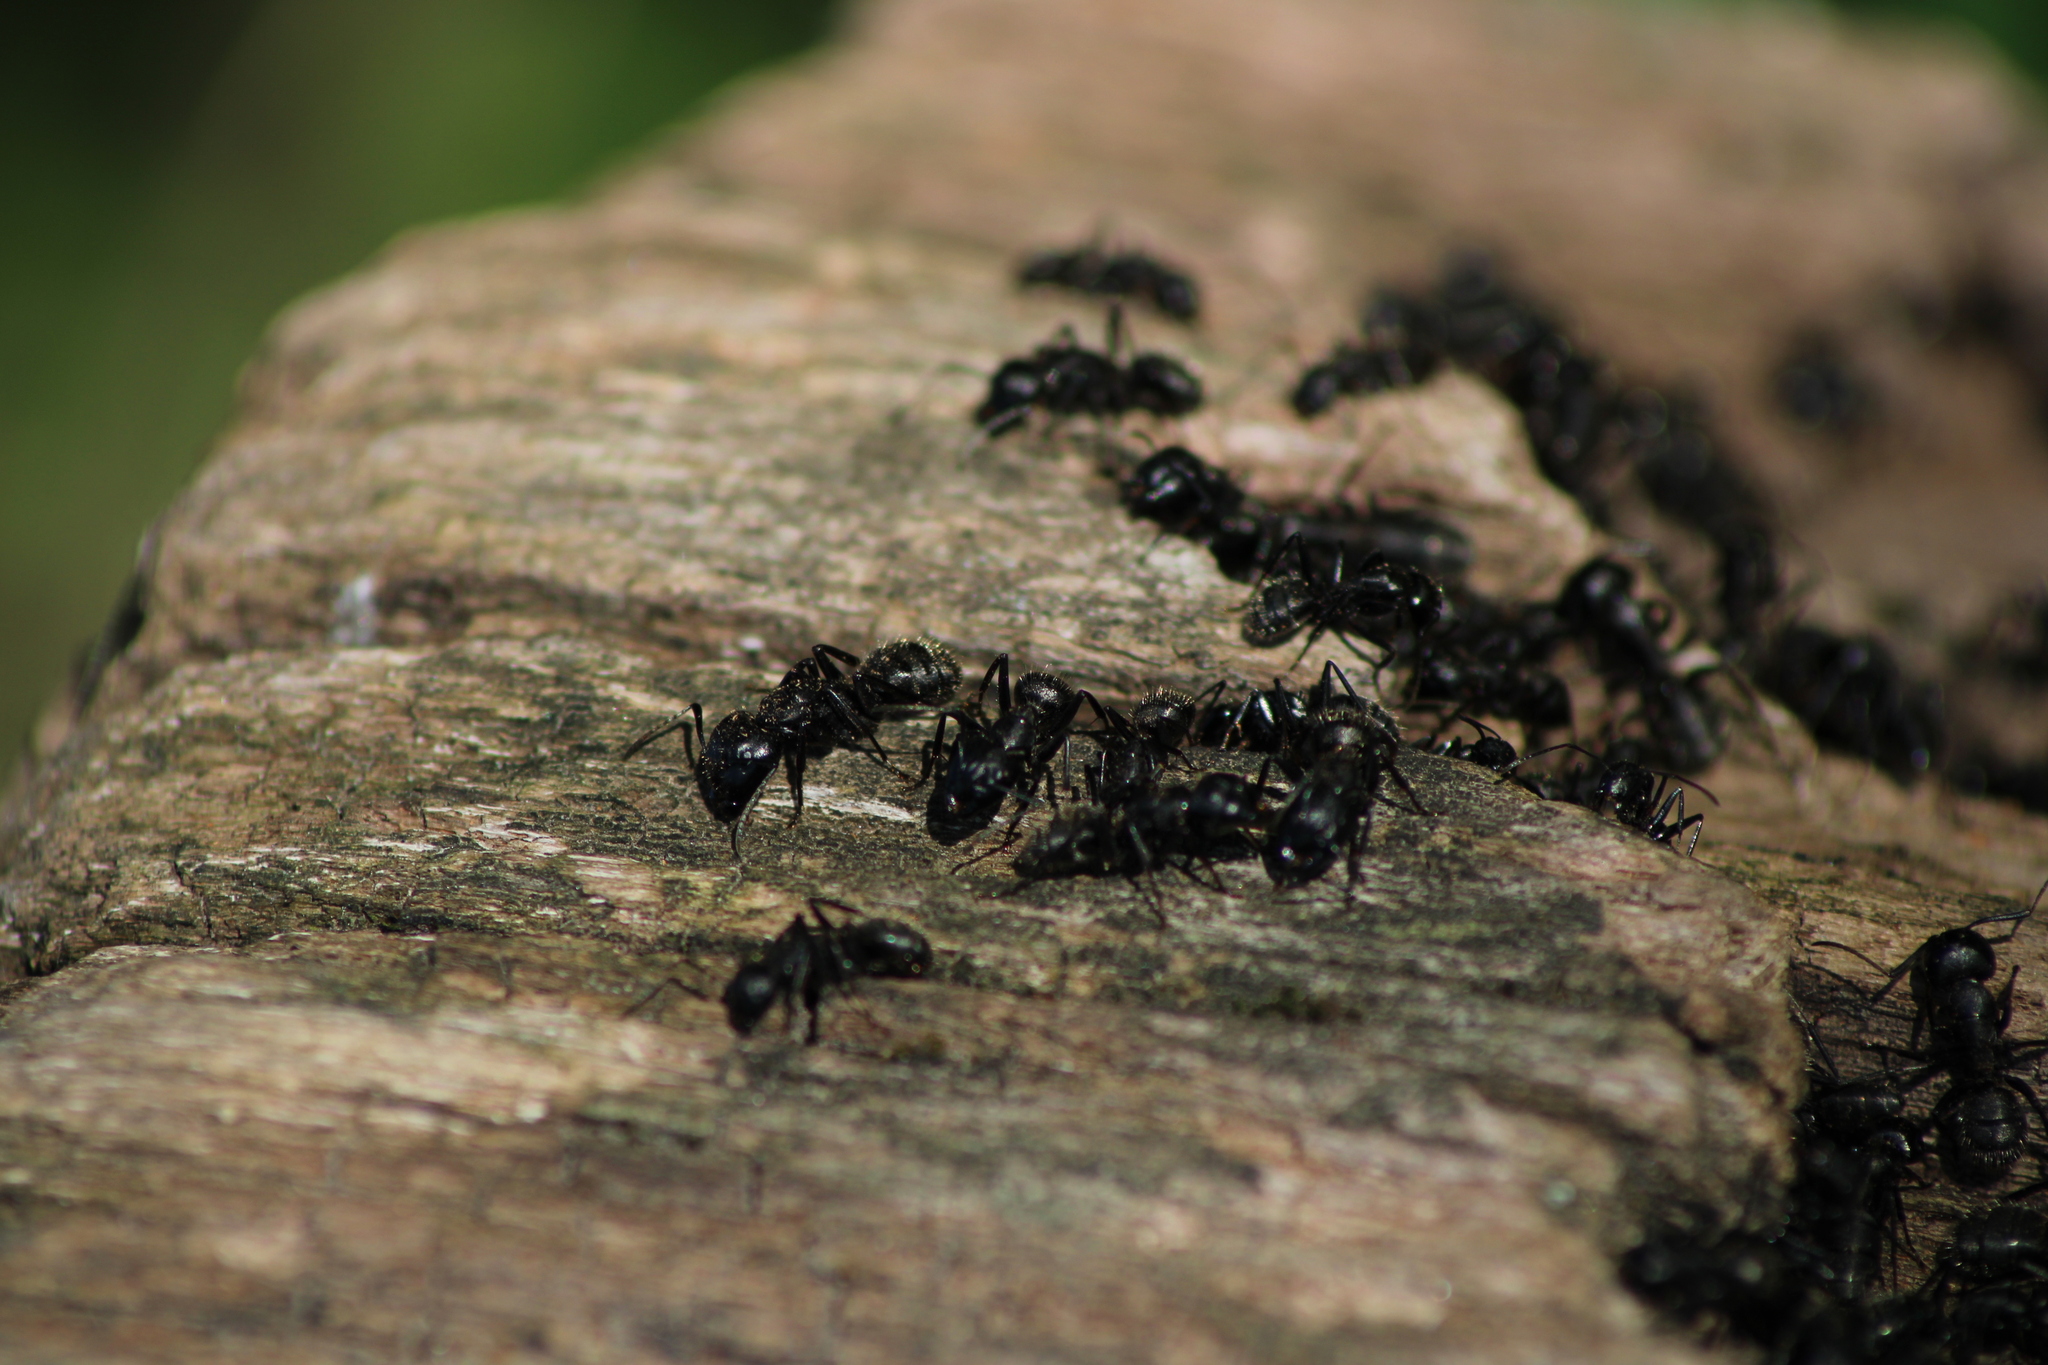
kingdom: Animalia
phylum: Arthropoda
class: Insecta
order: Hymenoptera
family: Formicidae
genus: Camponotus
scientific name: Camponotus vagus
